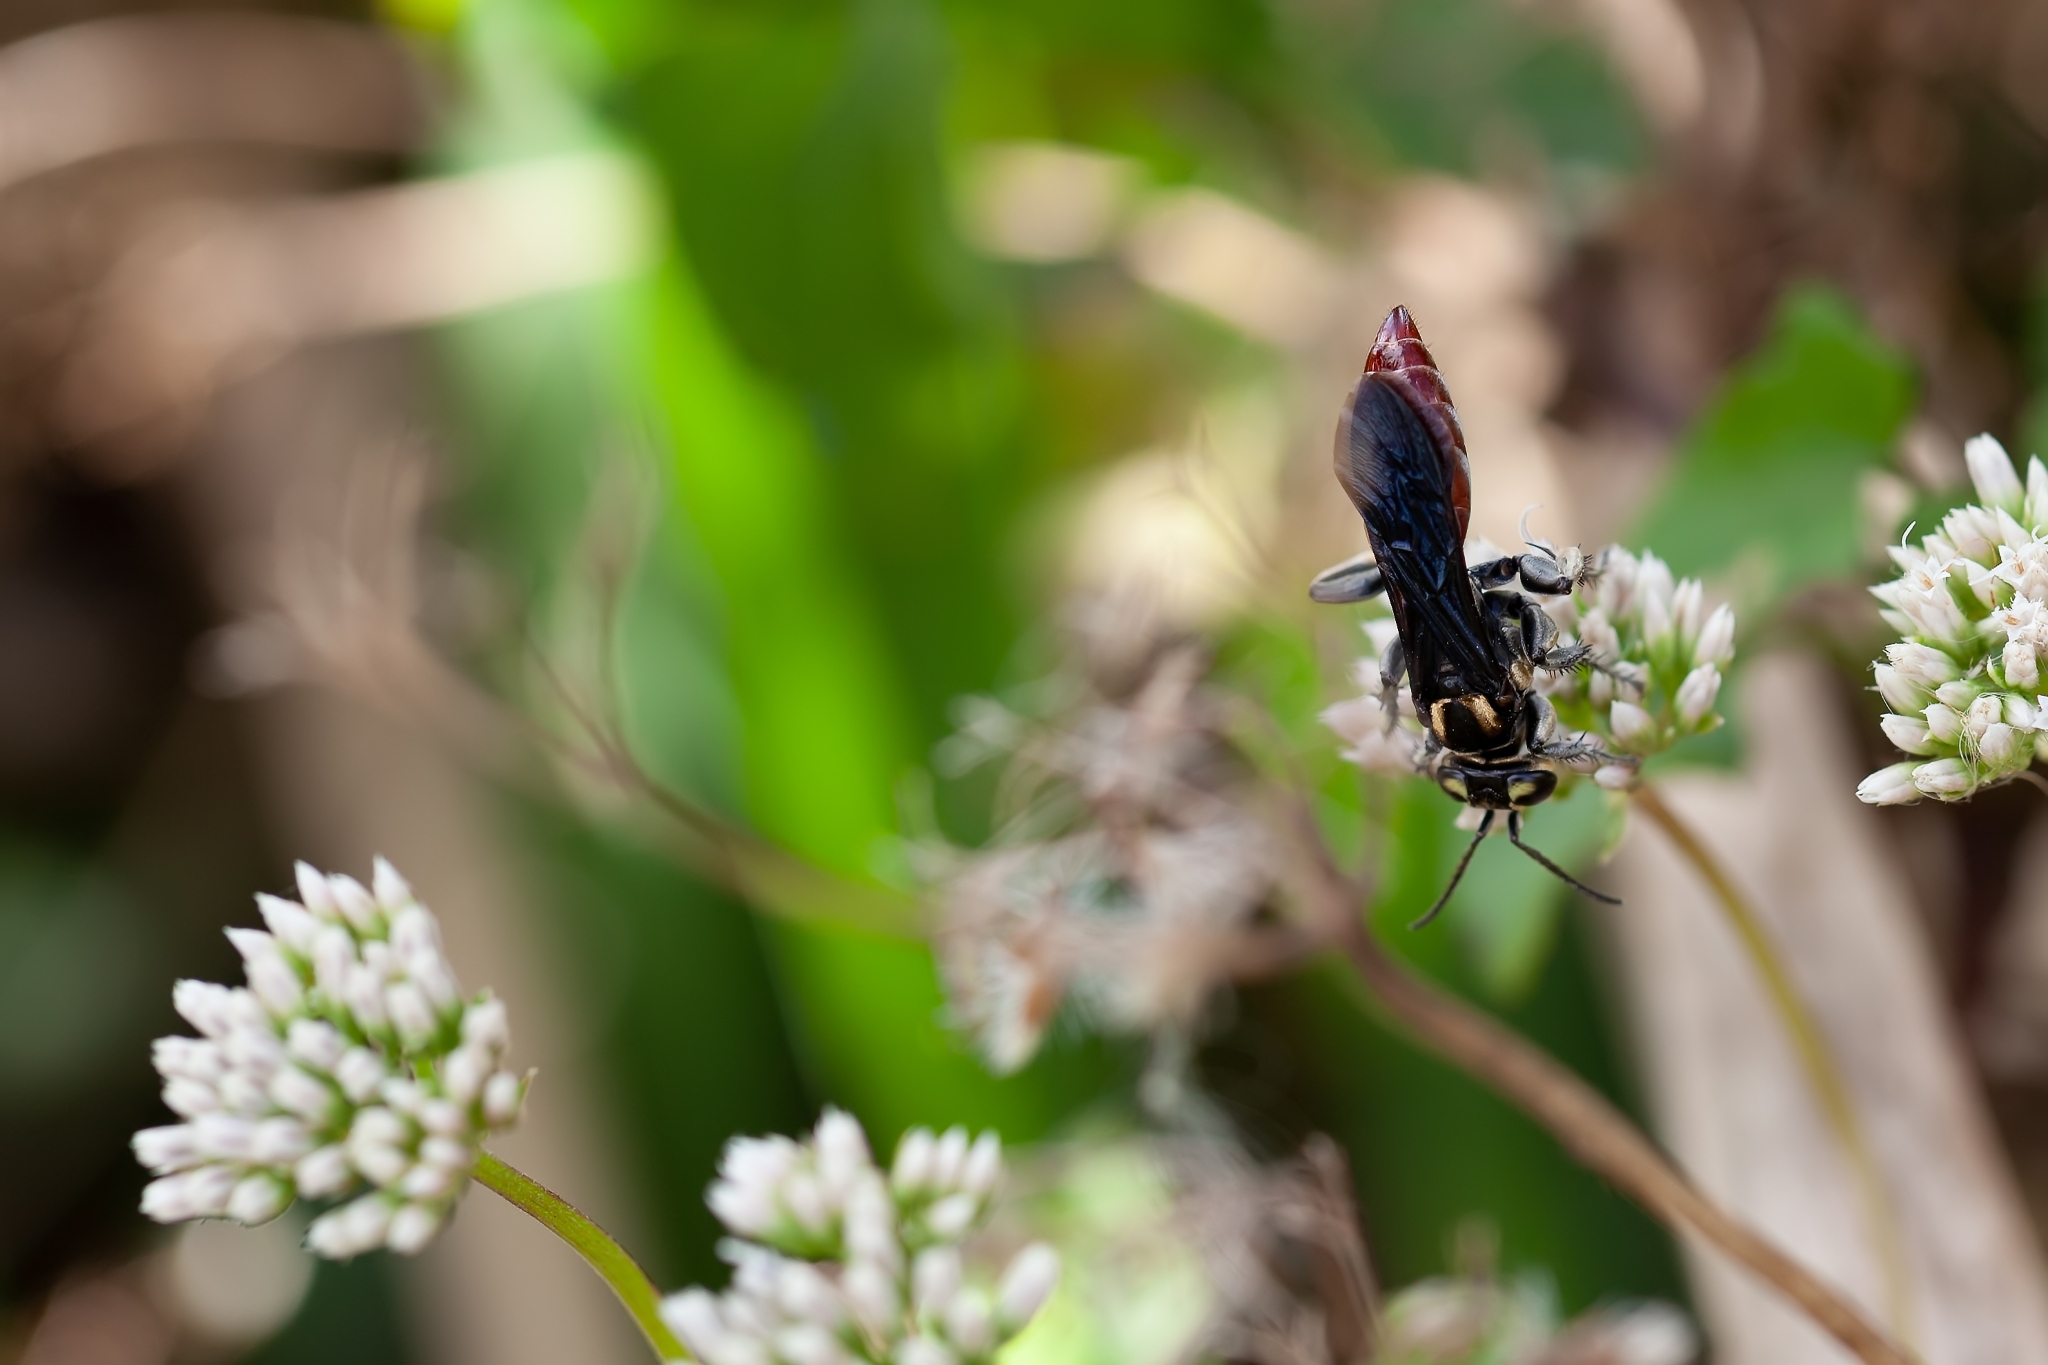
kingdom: Animalia
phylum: Arthropoda
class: Insecta
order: Hymenoptera
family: Crabronidae
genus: Larra
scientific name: Larra bicolor
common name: Wasp
